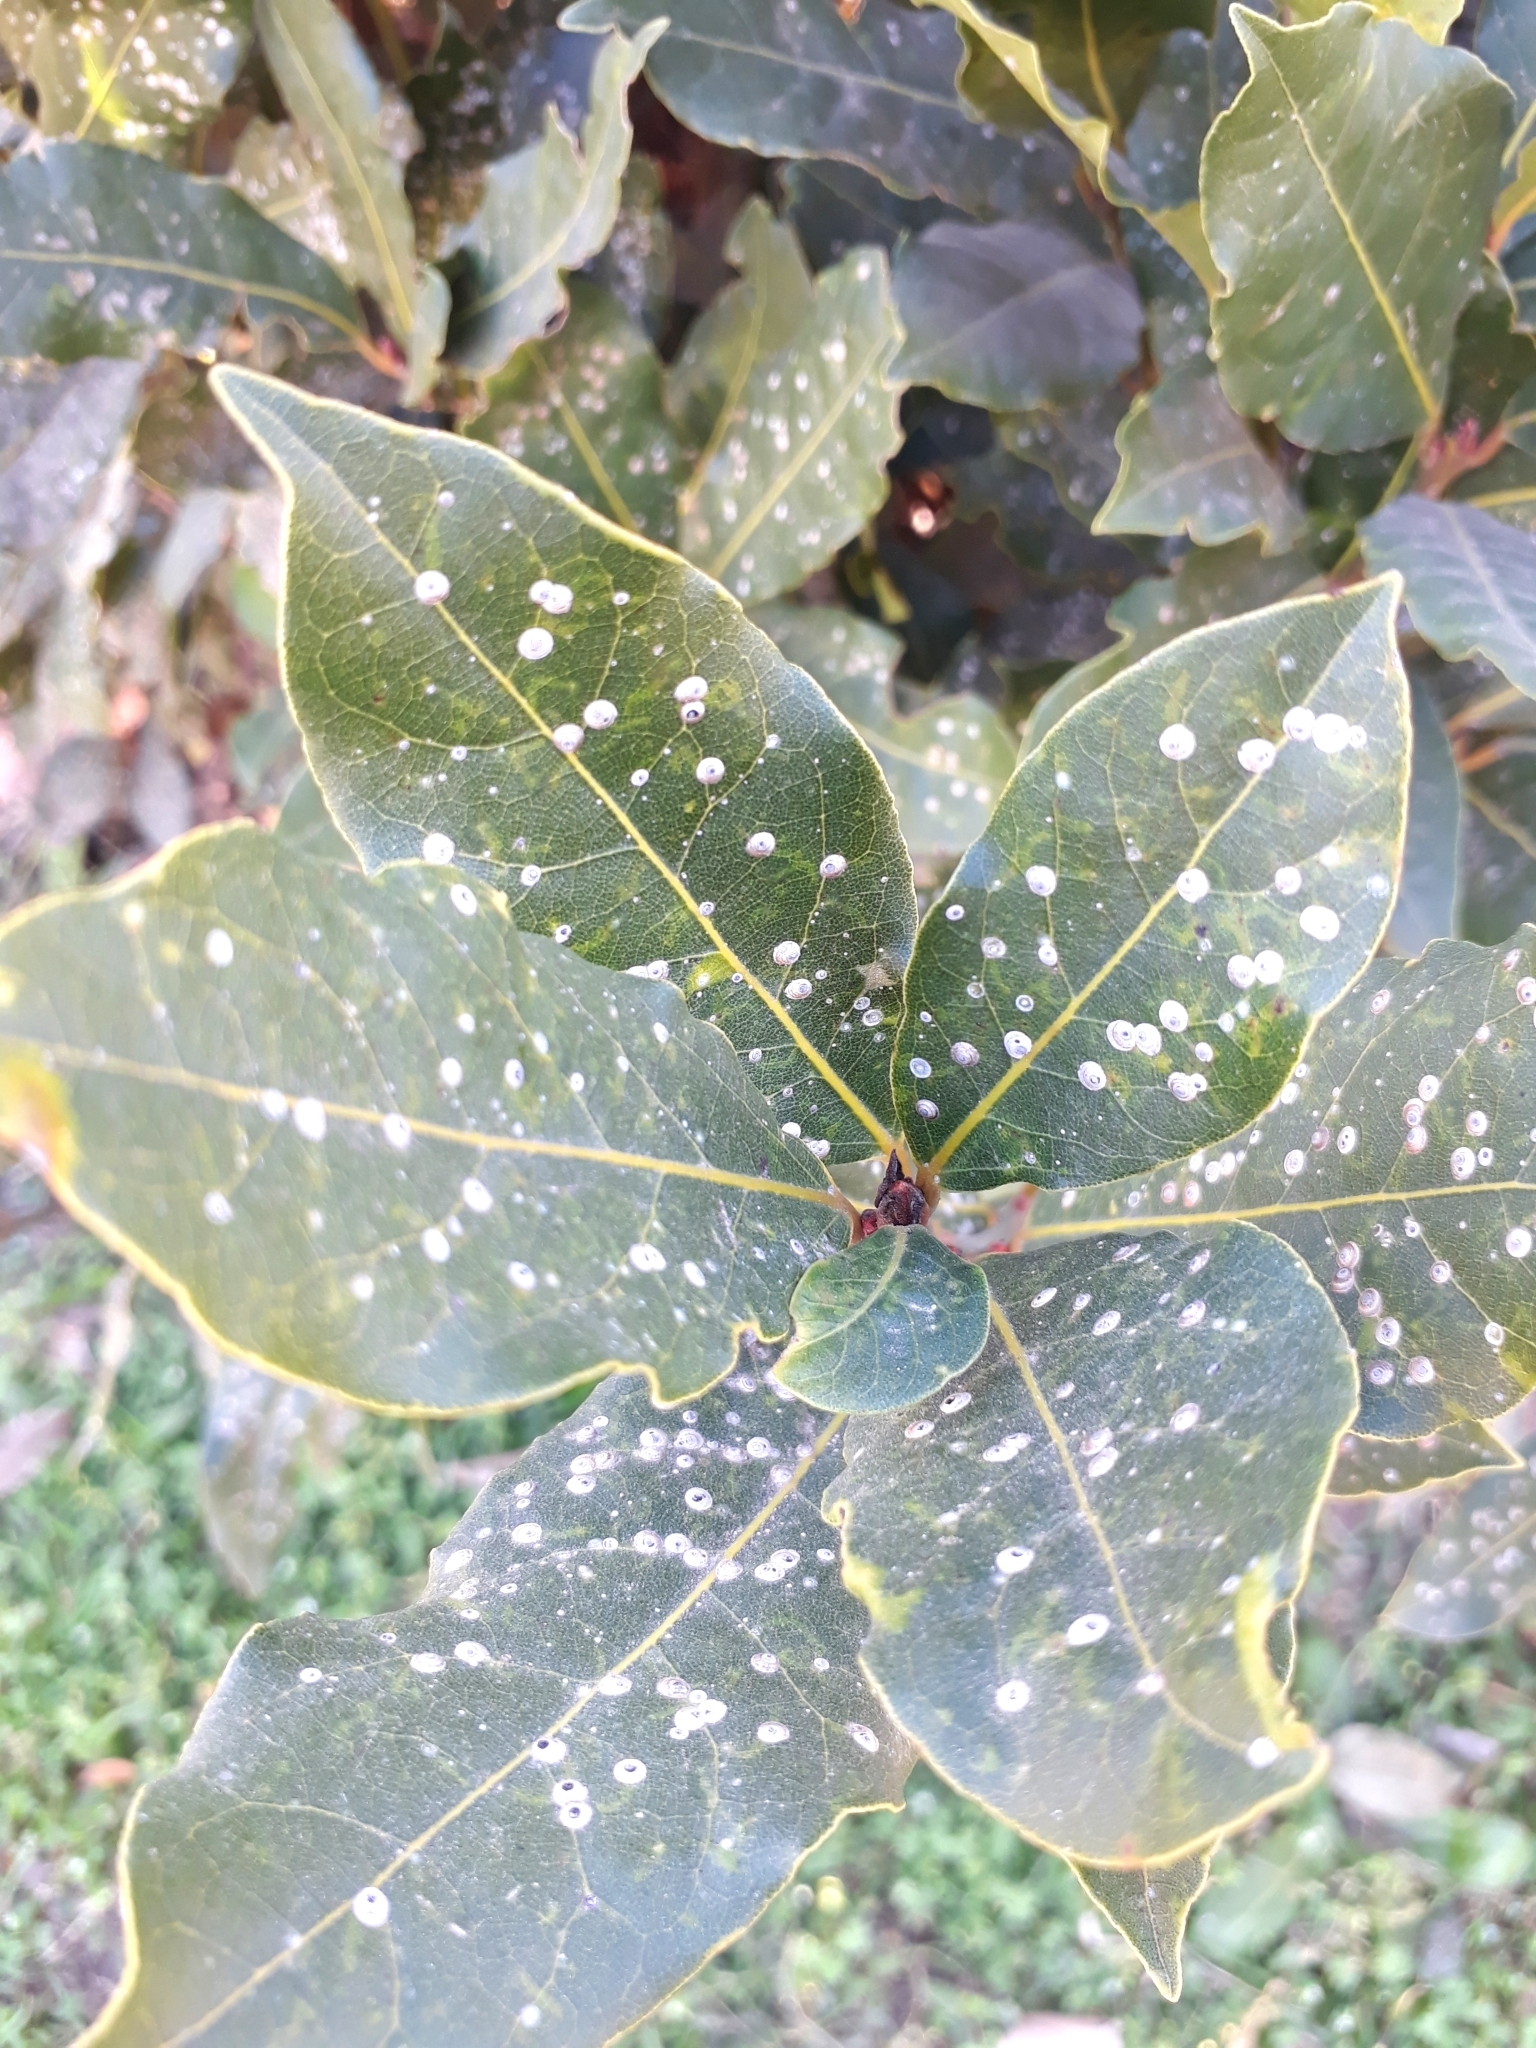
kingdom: Plantae
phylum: Tracheophyta
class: Magnoliopsida
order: Laurales
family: Lauraceae
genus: Laurus
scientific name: Laurus nobilis
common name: Bay
